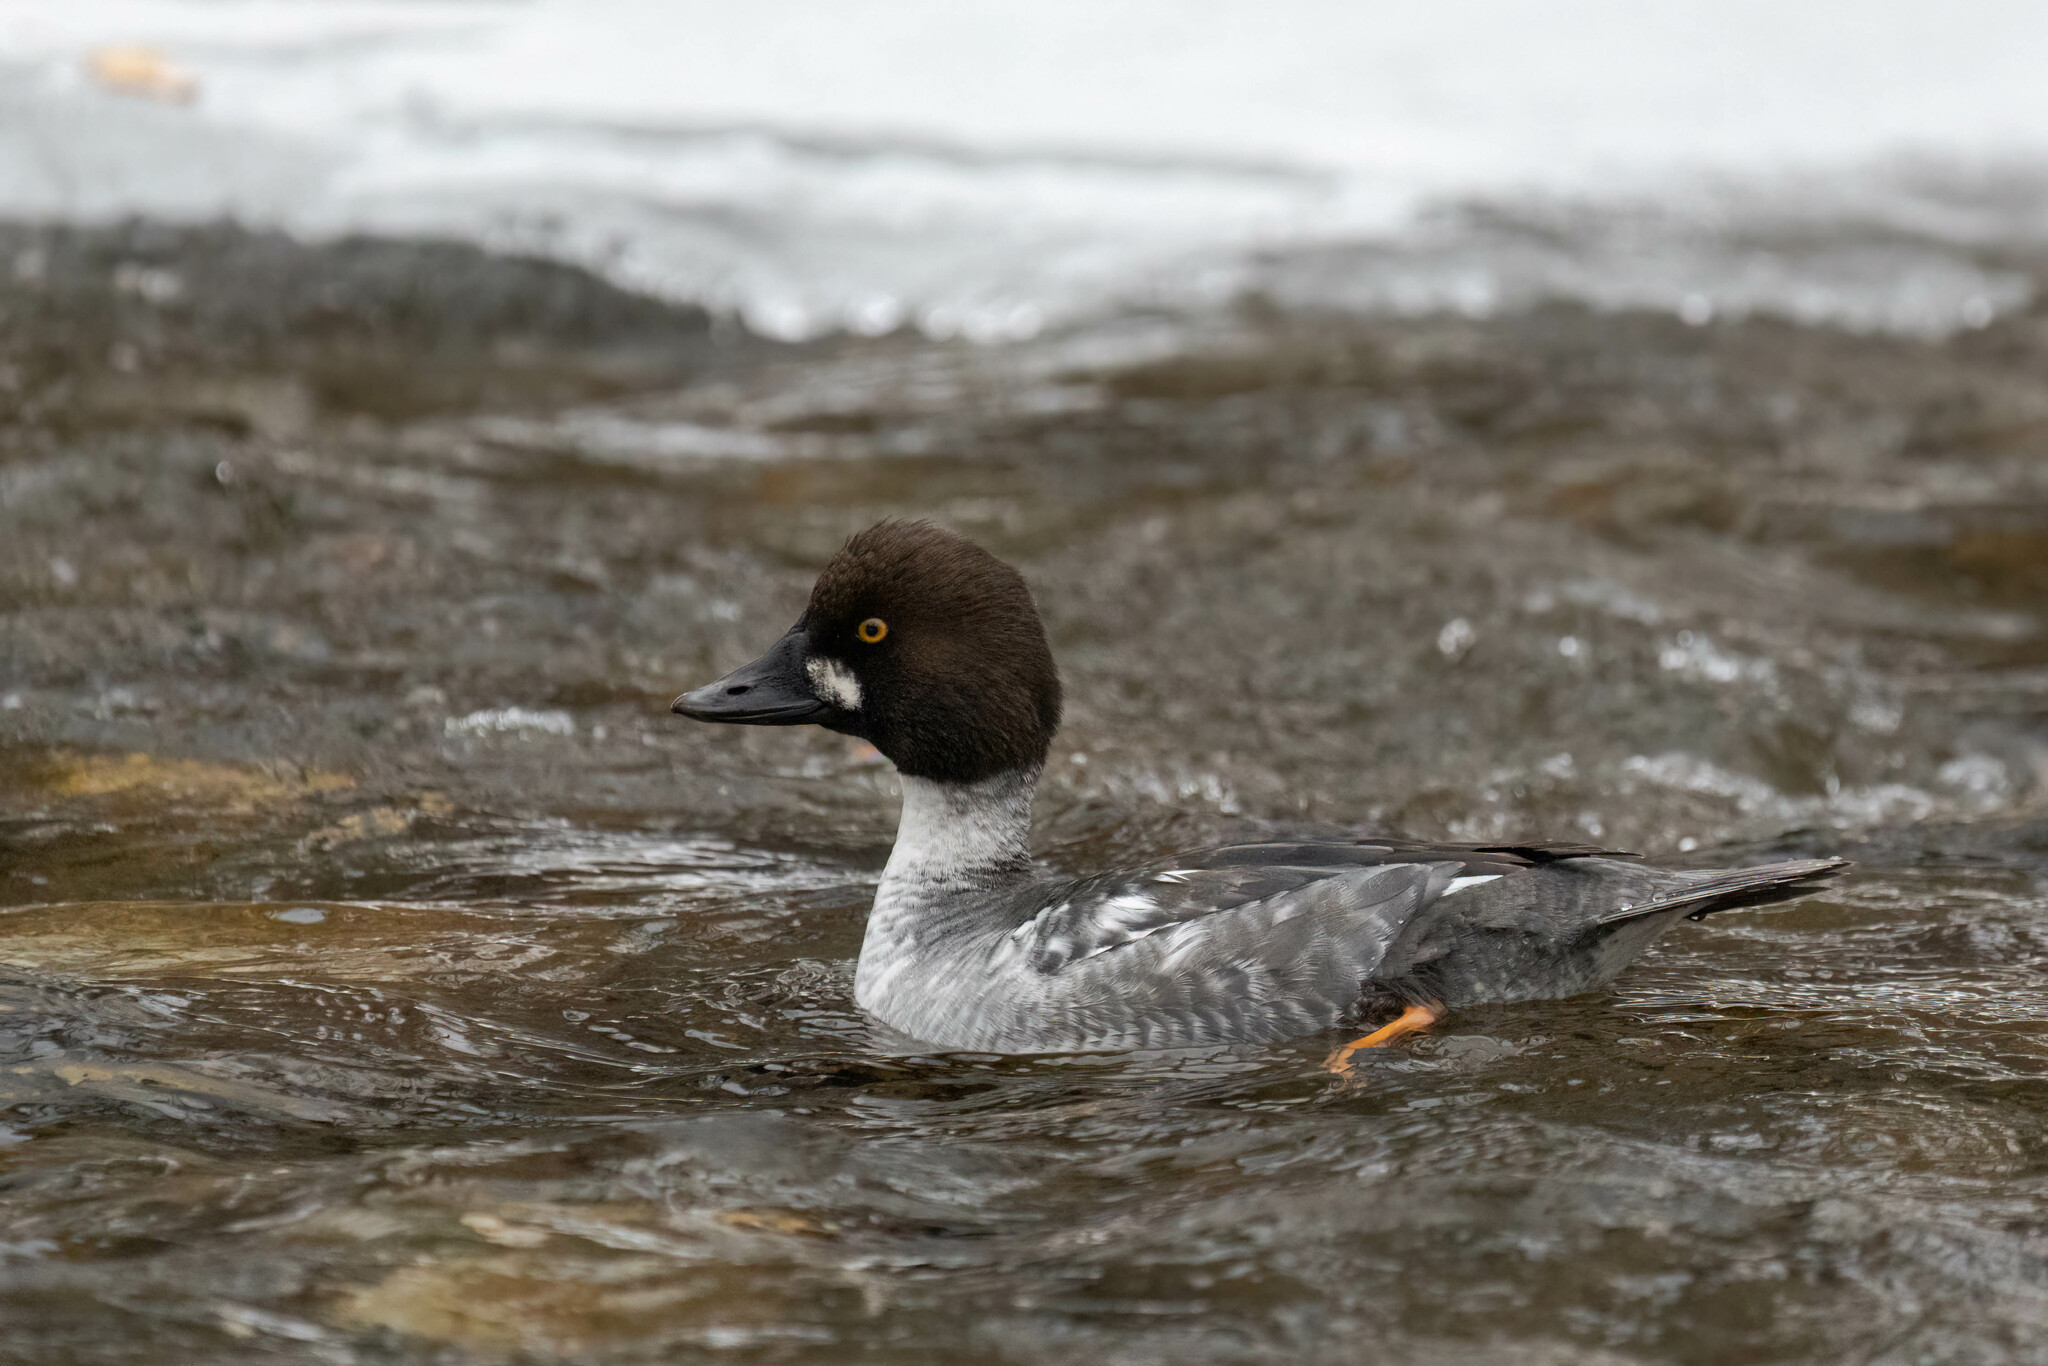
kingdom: Animalia
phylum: Chordata
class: Aves
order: Anseriformes
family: Anatidae
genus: Bucephala
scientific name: Bucephala clangula
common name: Common goldeneye
